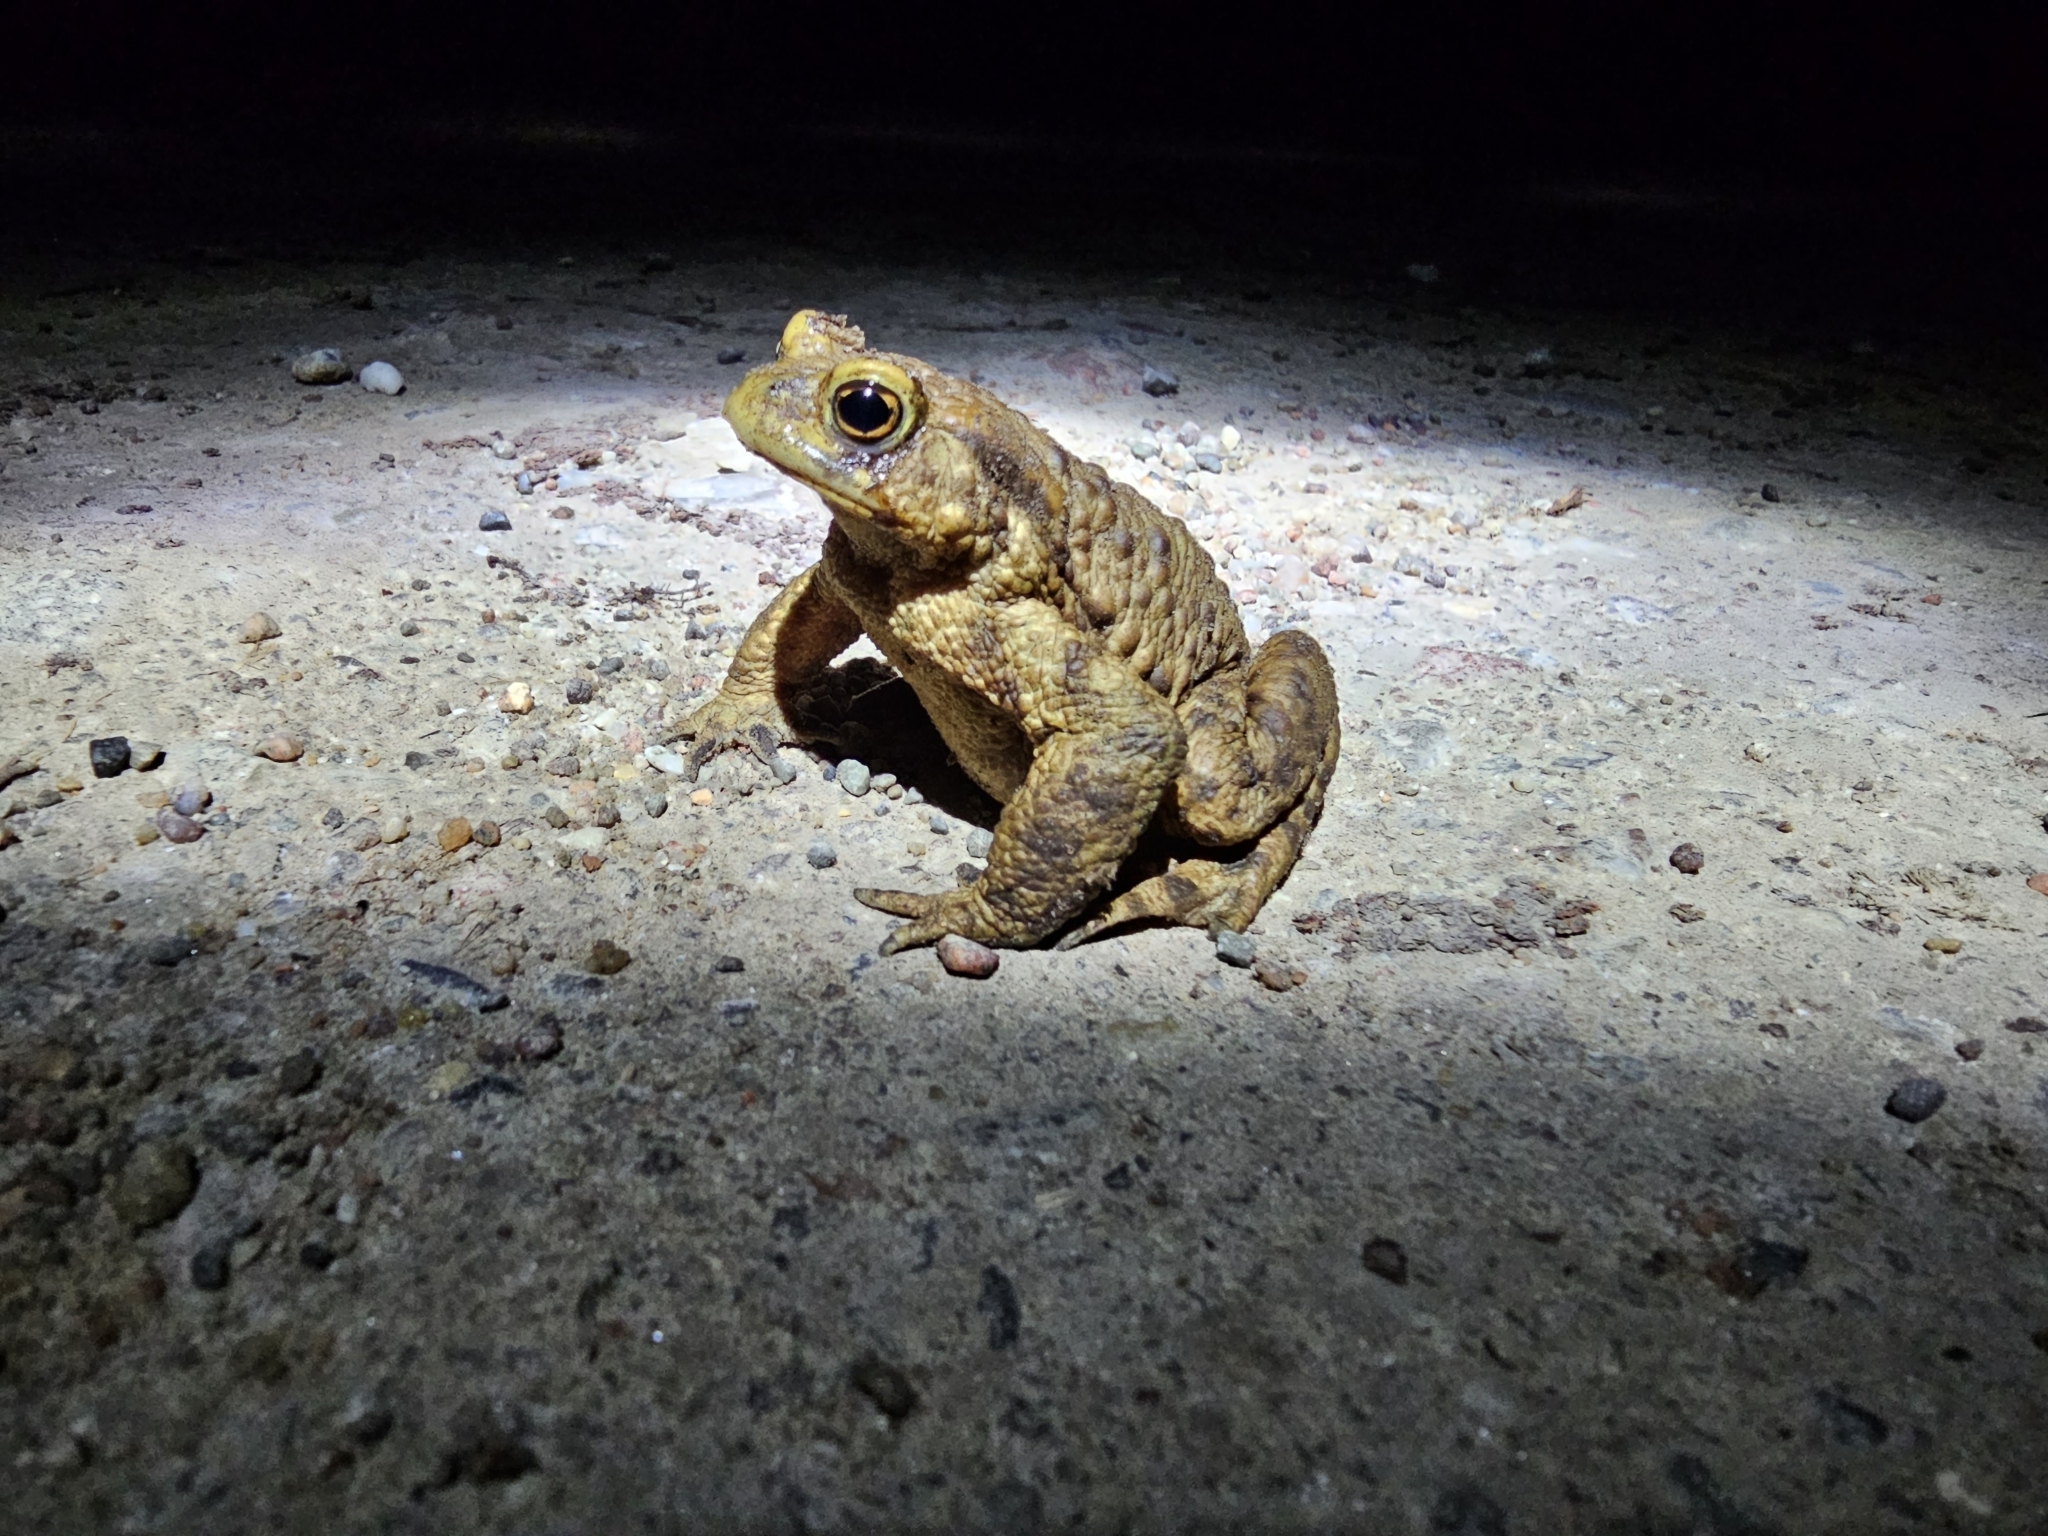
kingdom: Animalia
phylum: Chordata
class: Amphibia
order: Anura
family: Bufonidae
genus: Bufo
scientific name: Bufo bufo
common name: Common toad
